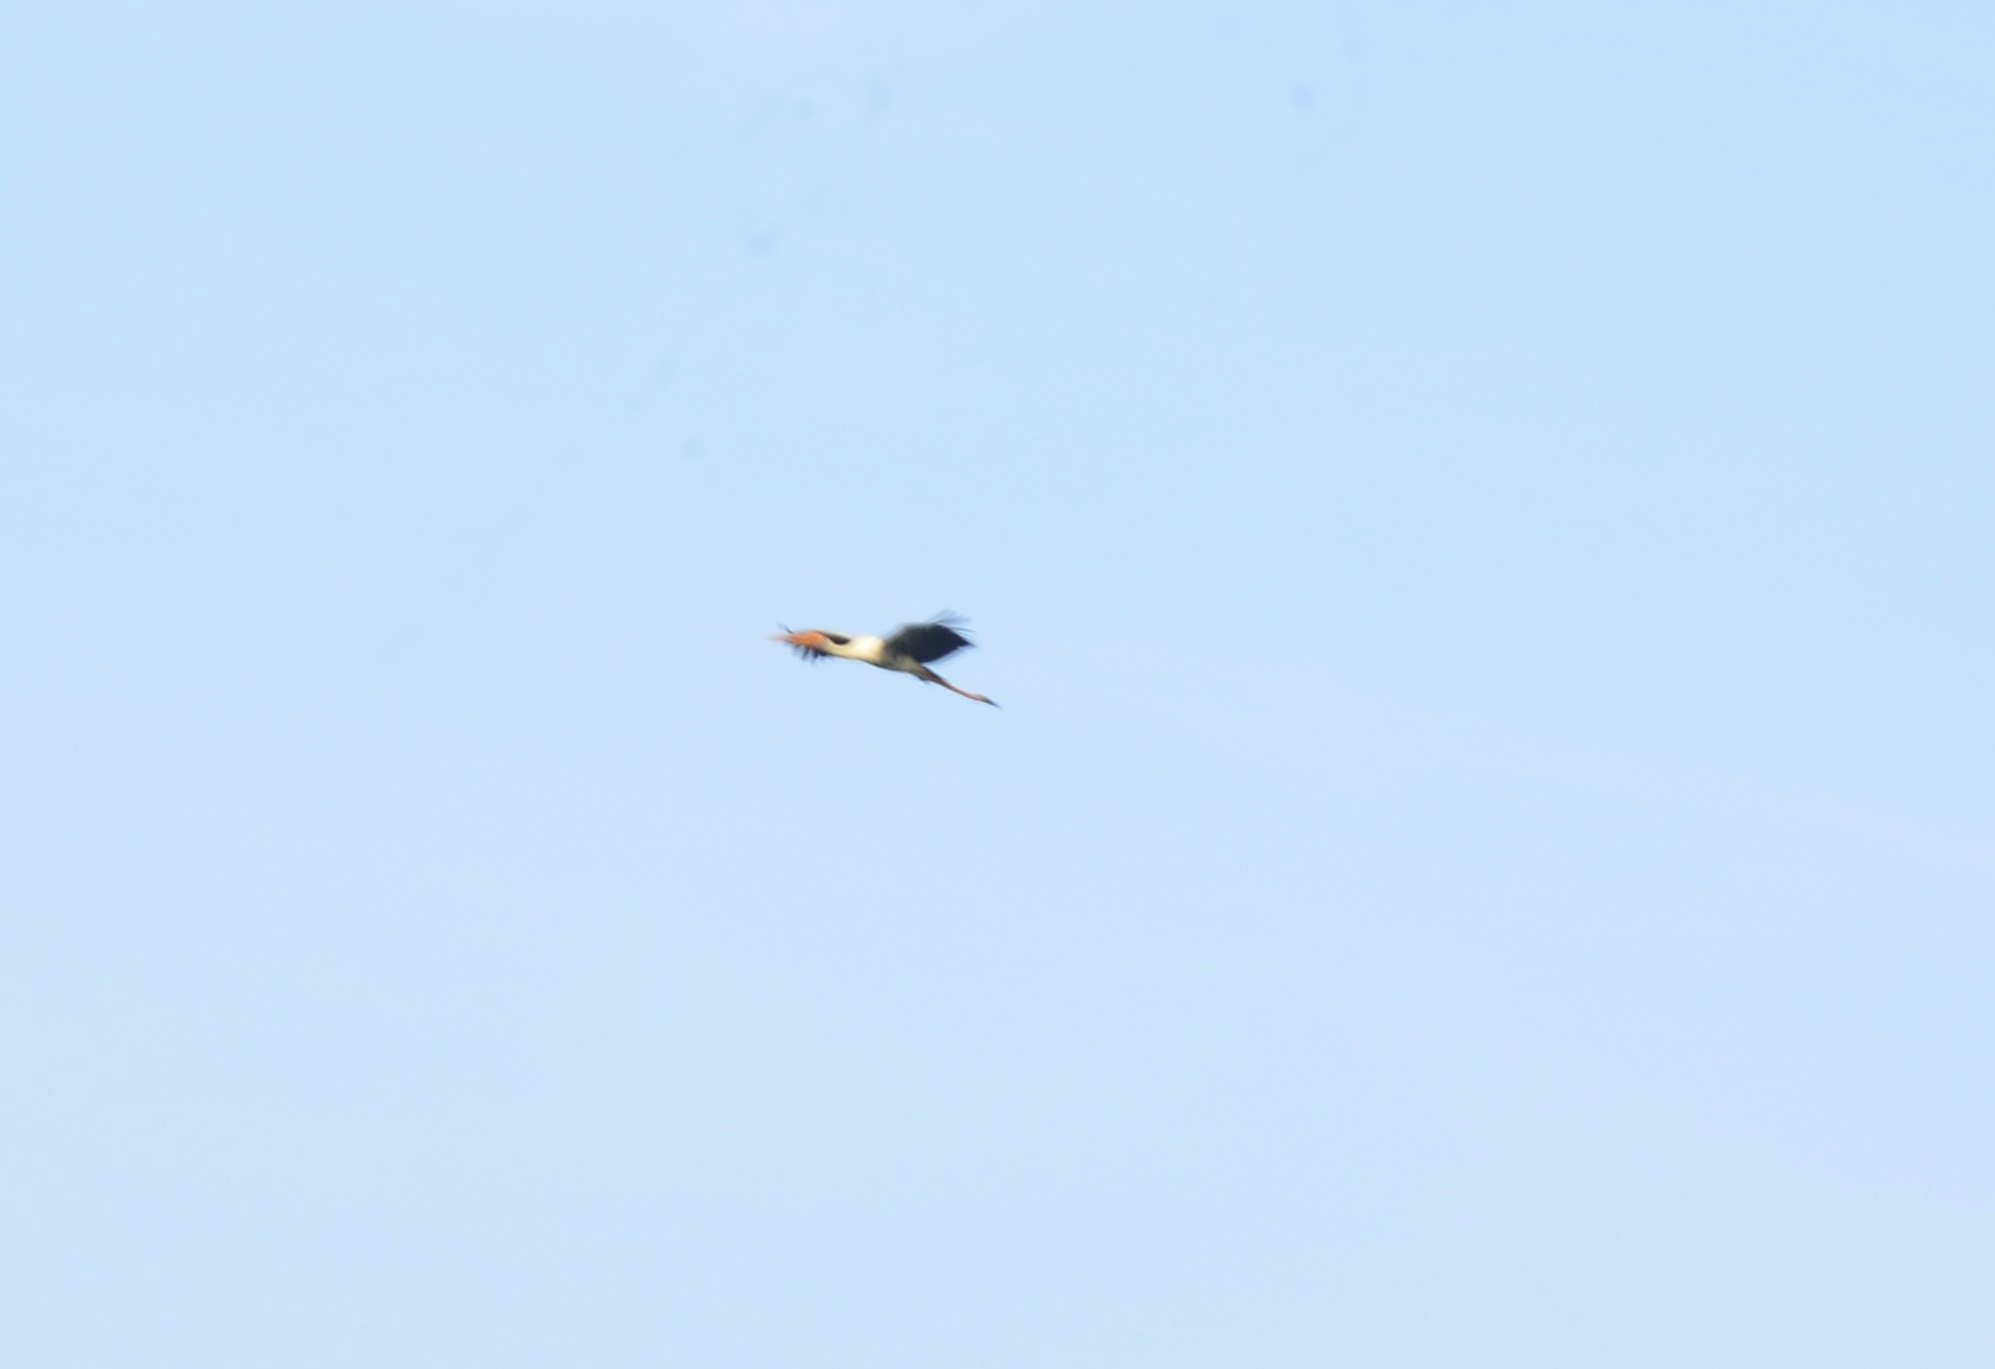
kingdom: Animalia
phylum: Chordata
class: Aves
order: Ciconiiformes
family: Ciconiidae
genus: Mycteria
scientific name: Mycteria leucocephala
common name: Painted stork
